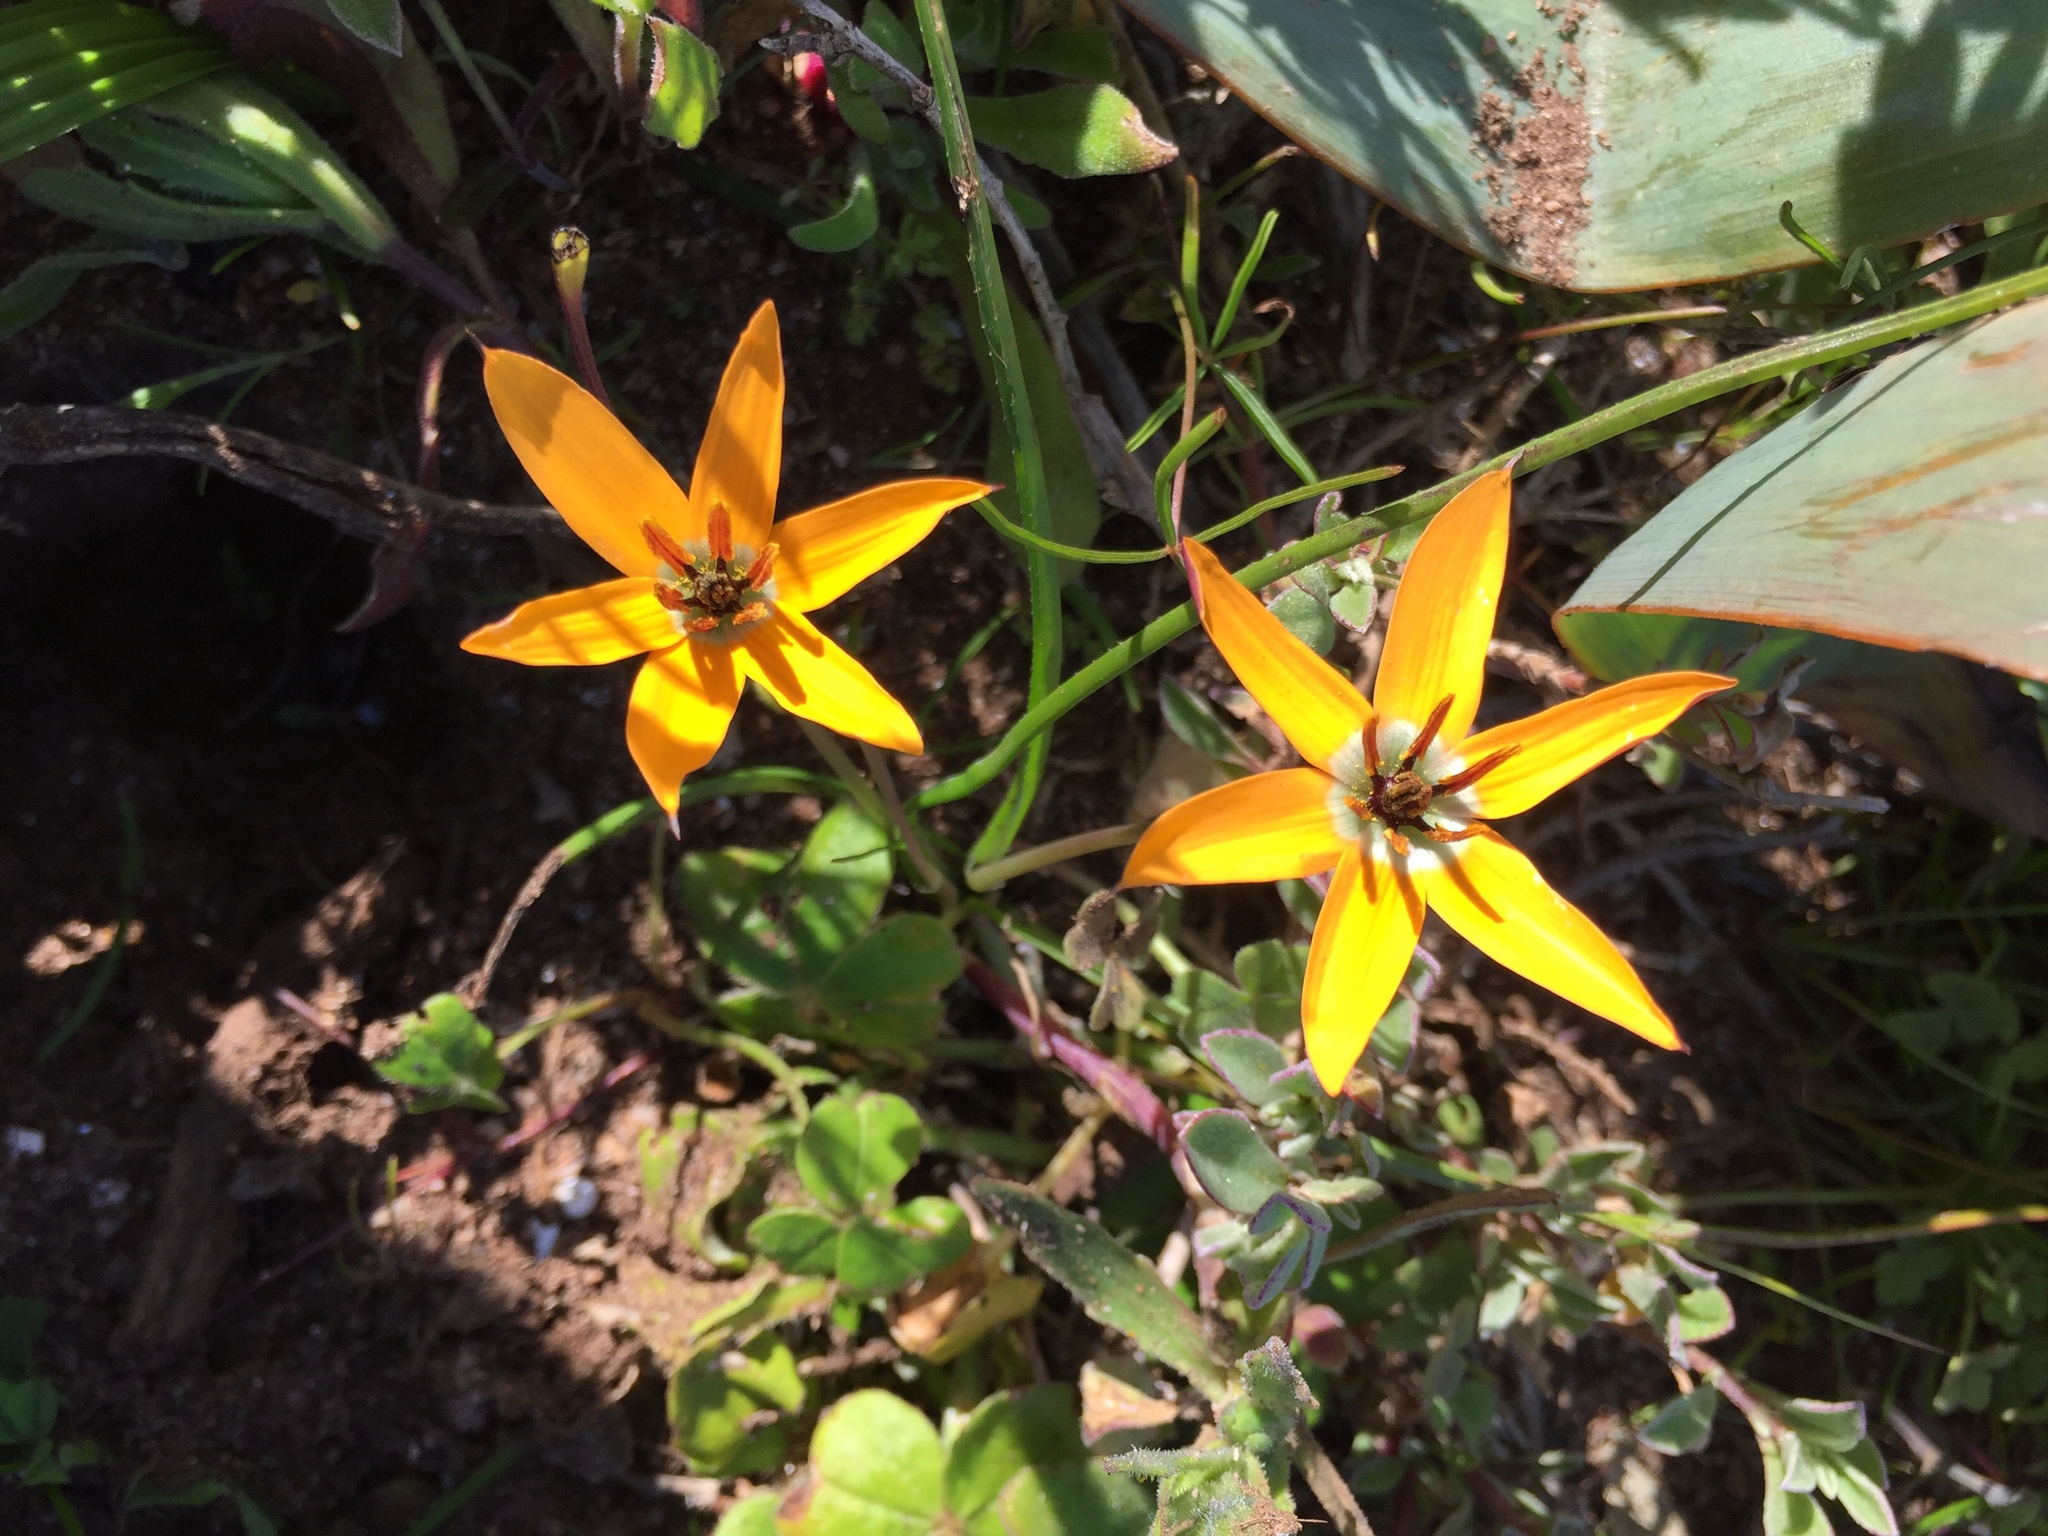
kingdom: Plantae
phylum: Tracheophyta
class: Liliopsida
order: Asparagales
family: Hypoxidaceae
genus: Pauridia
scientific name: Pauridia linearis
